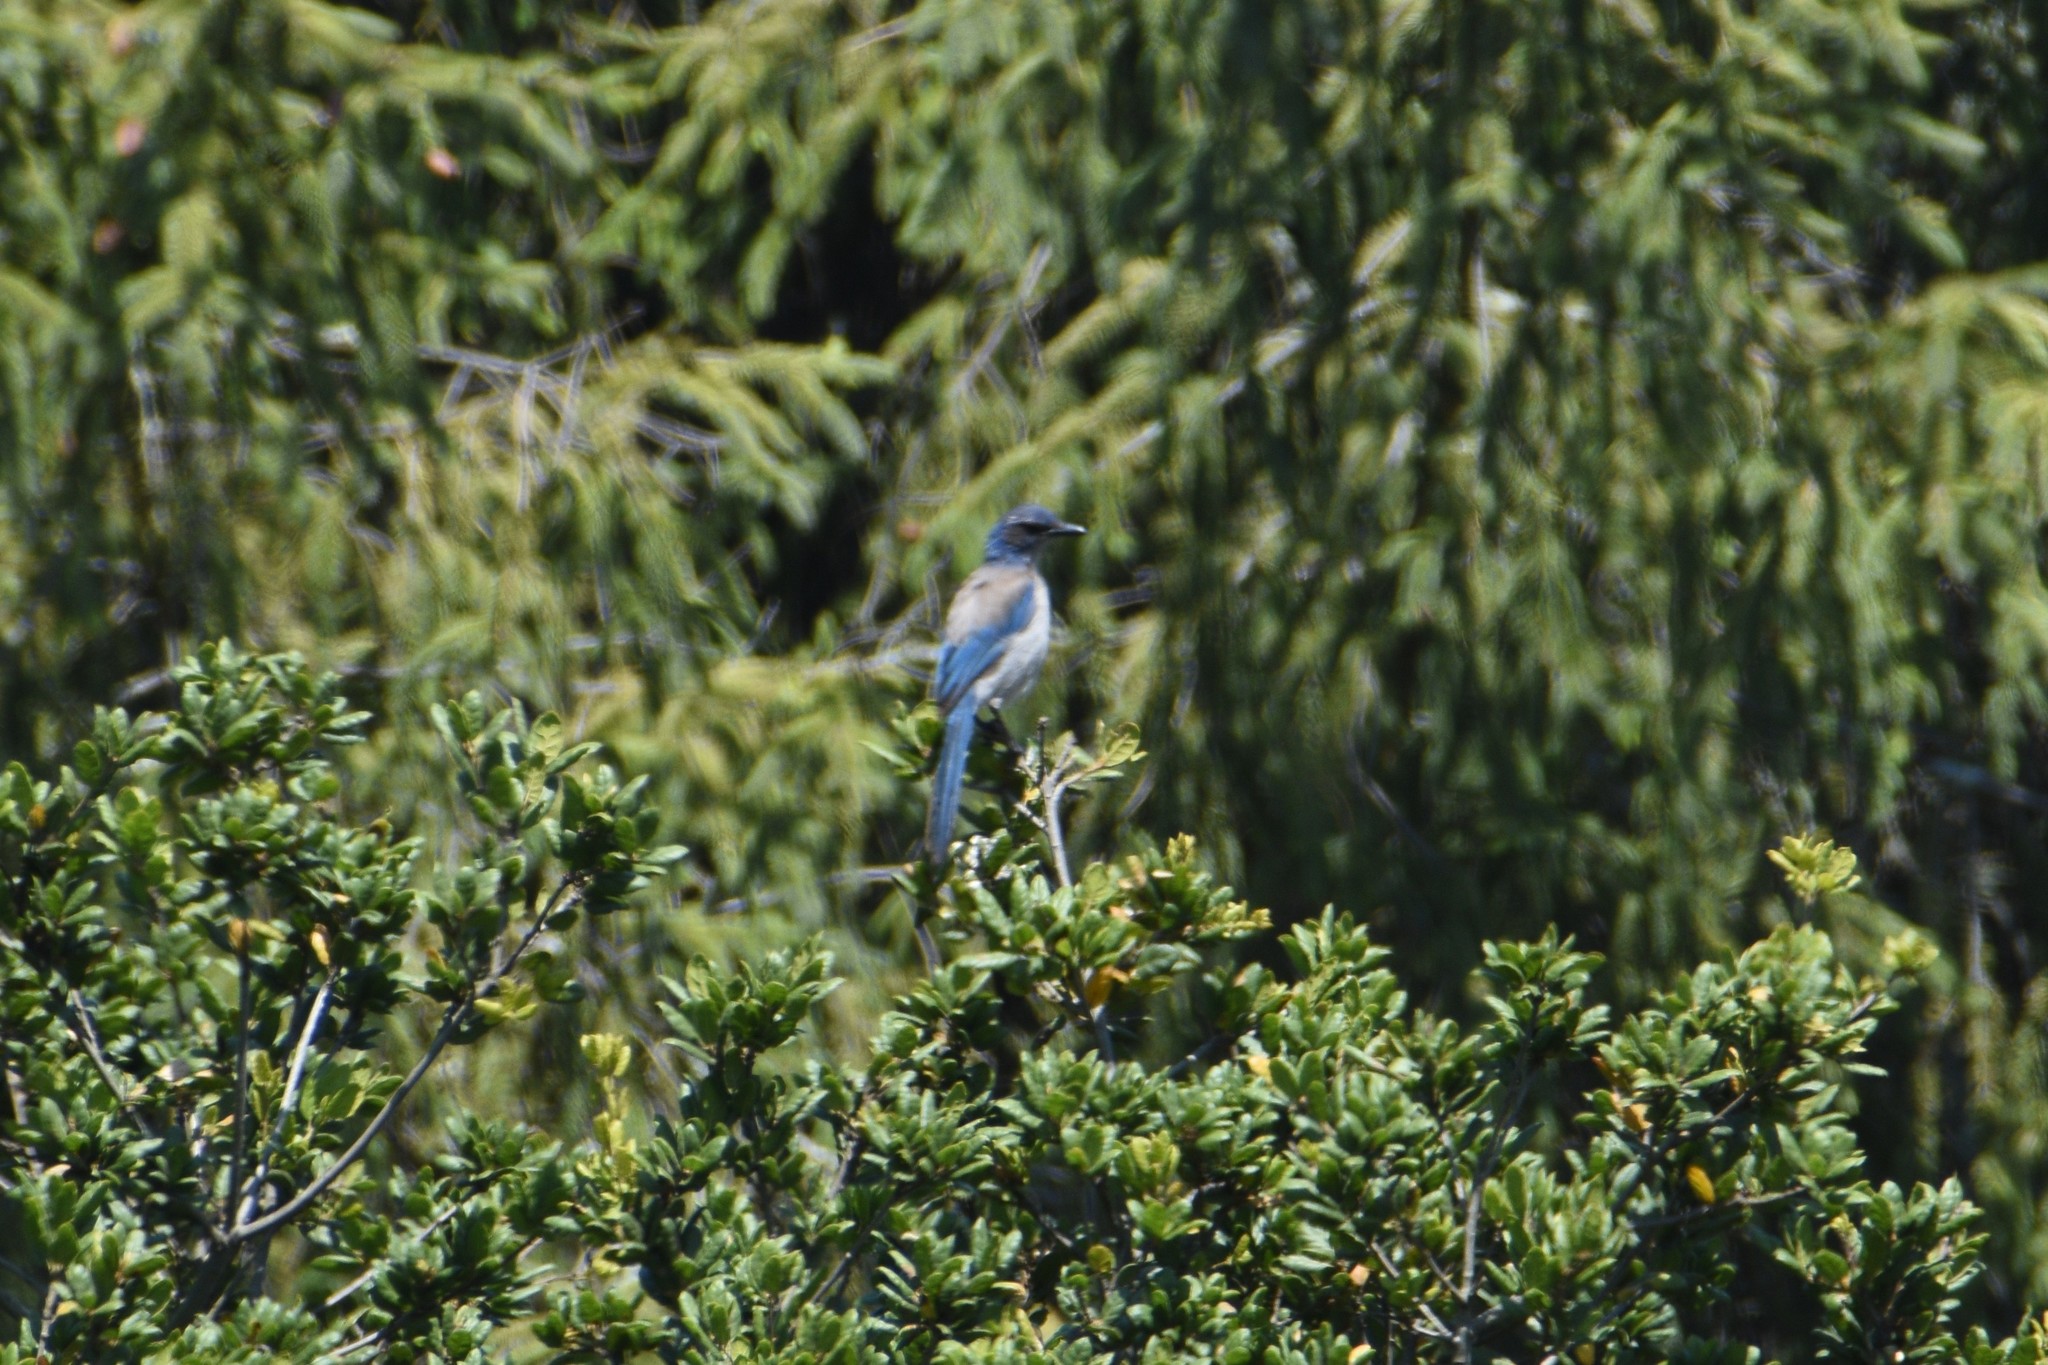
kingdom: Animalia
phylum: Chordata
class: Aves
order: Passeriformes
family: Corvidae
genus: Aphelocoma
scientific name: Aphelocoma californica
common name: California scrub-jay
